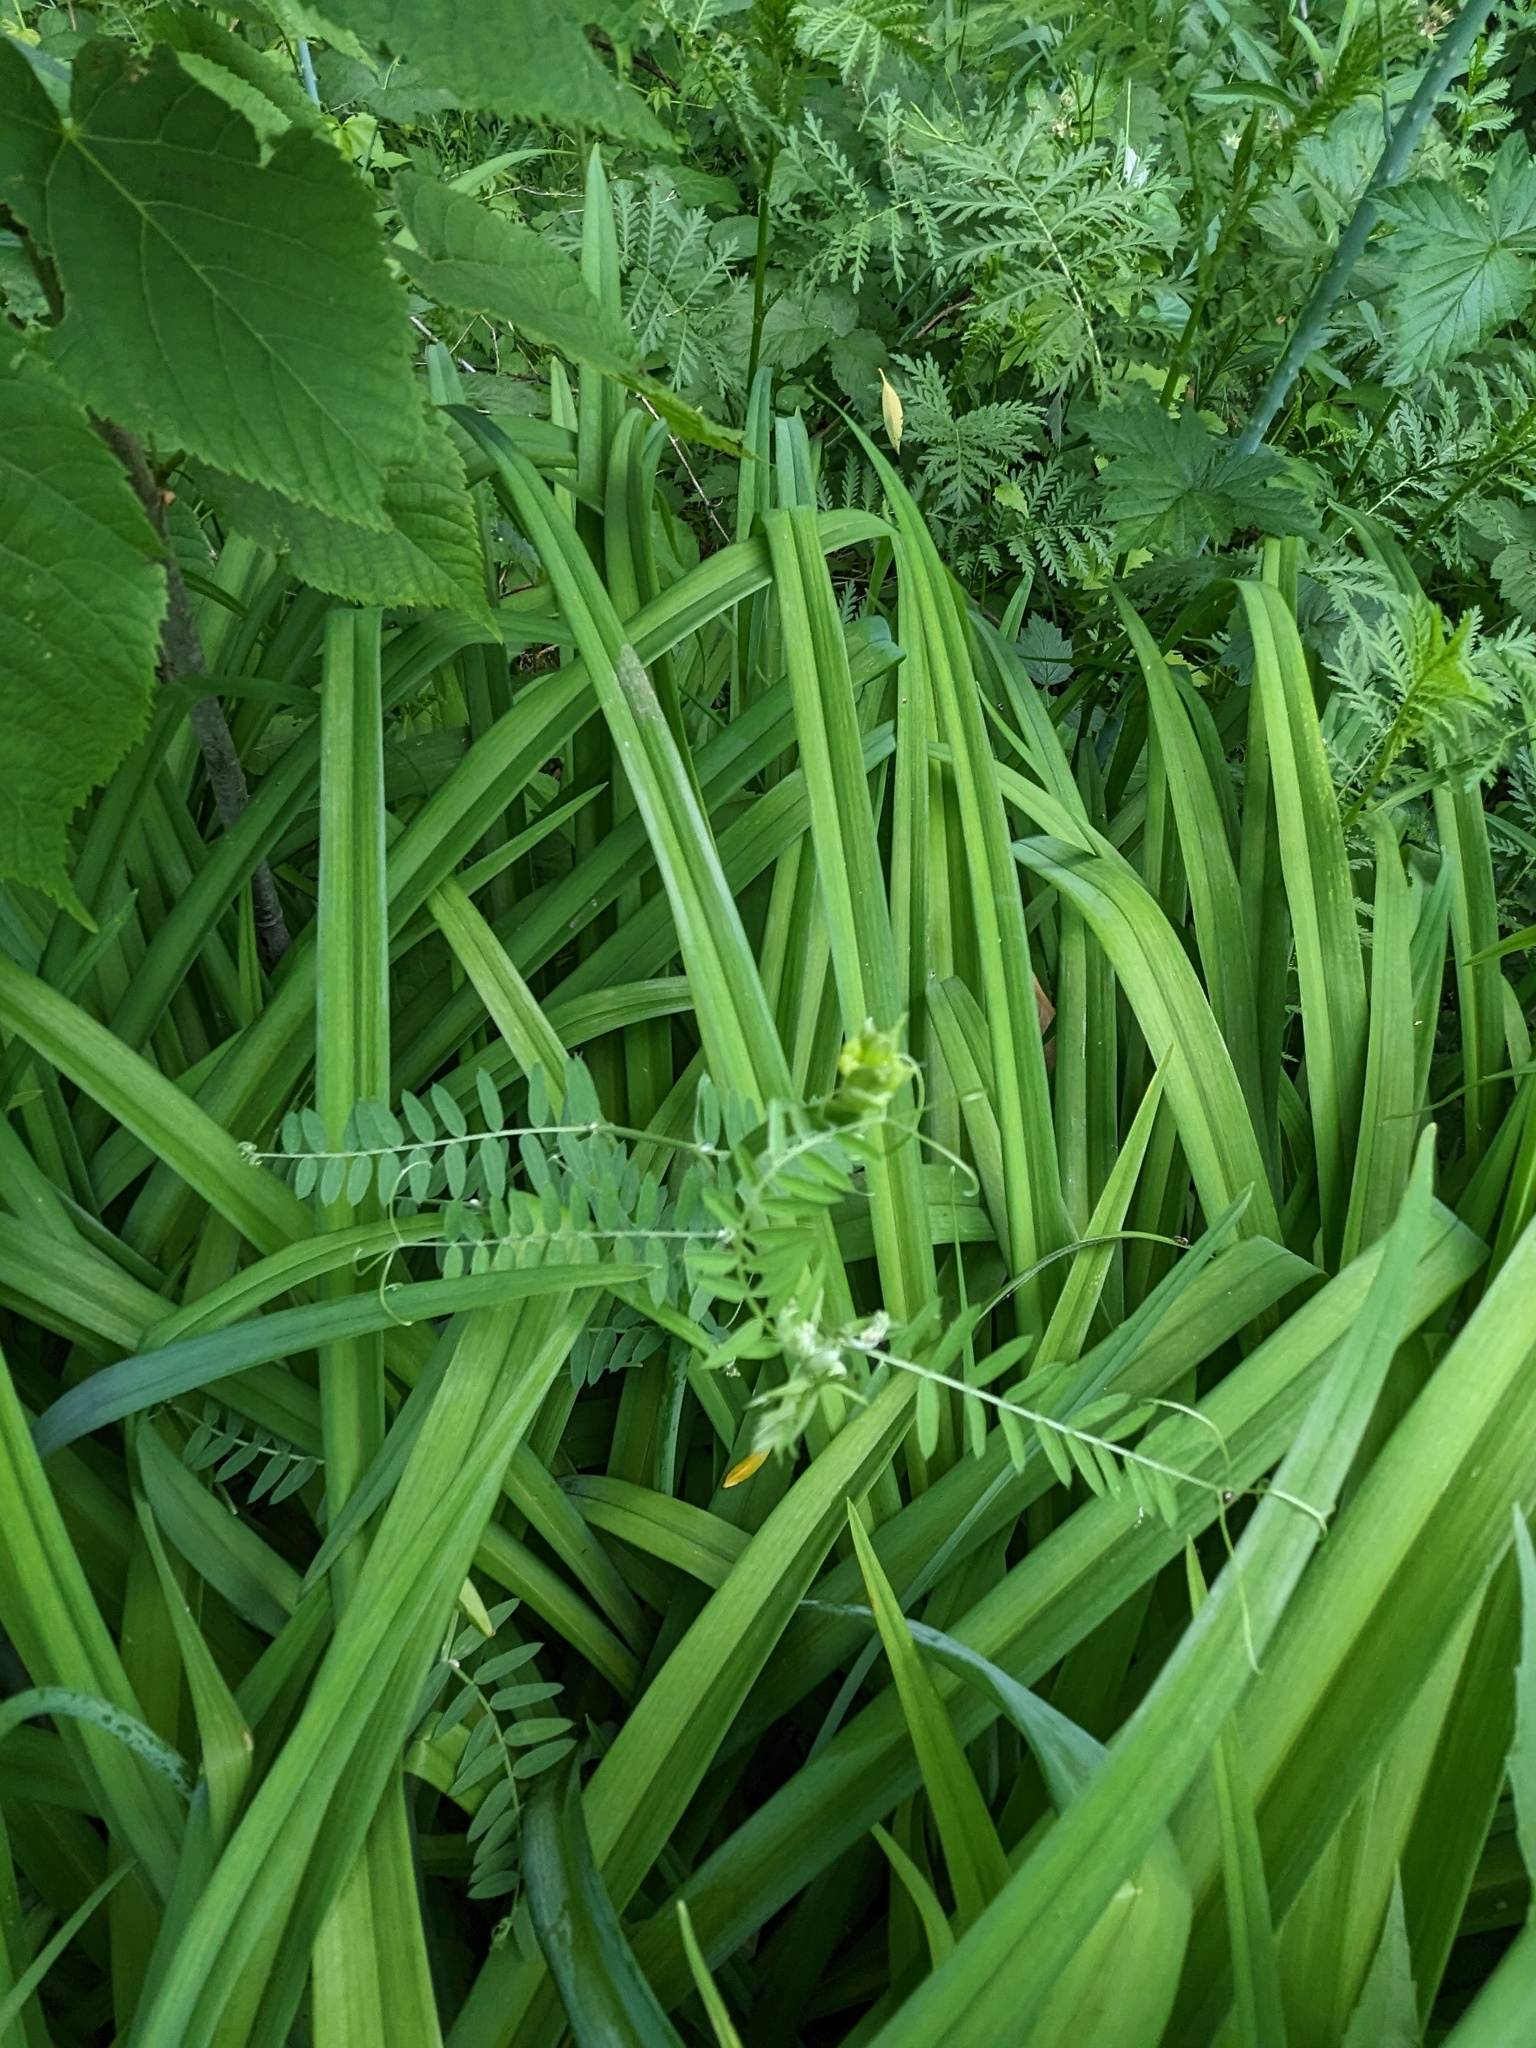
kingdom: Plantae
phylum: Tracheophyta
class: Magnoliopsida
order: Fabales
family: Fabaceae
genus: Vicia
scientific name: Vicia cracca
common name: Bird vetch
